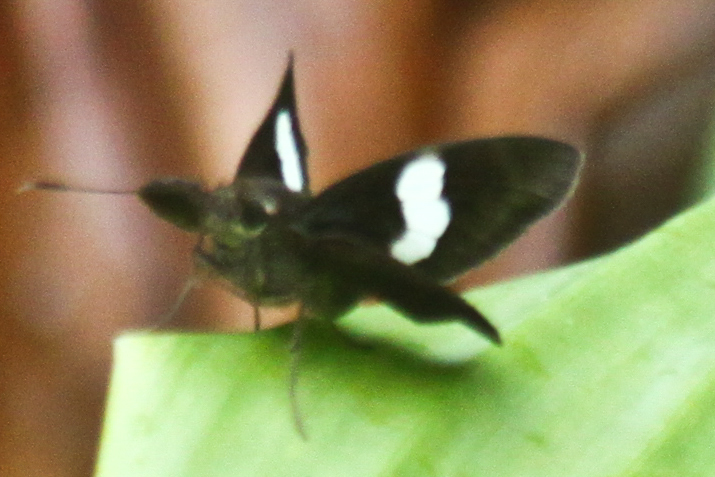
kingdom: Animalia
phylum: Arthropoda
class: Insecta
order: Lepidoptera
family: Hesperiidae
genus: Notocrypta
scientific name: Notocrypta paralysos
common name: Common banded demon
